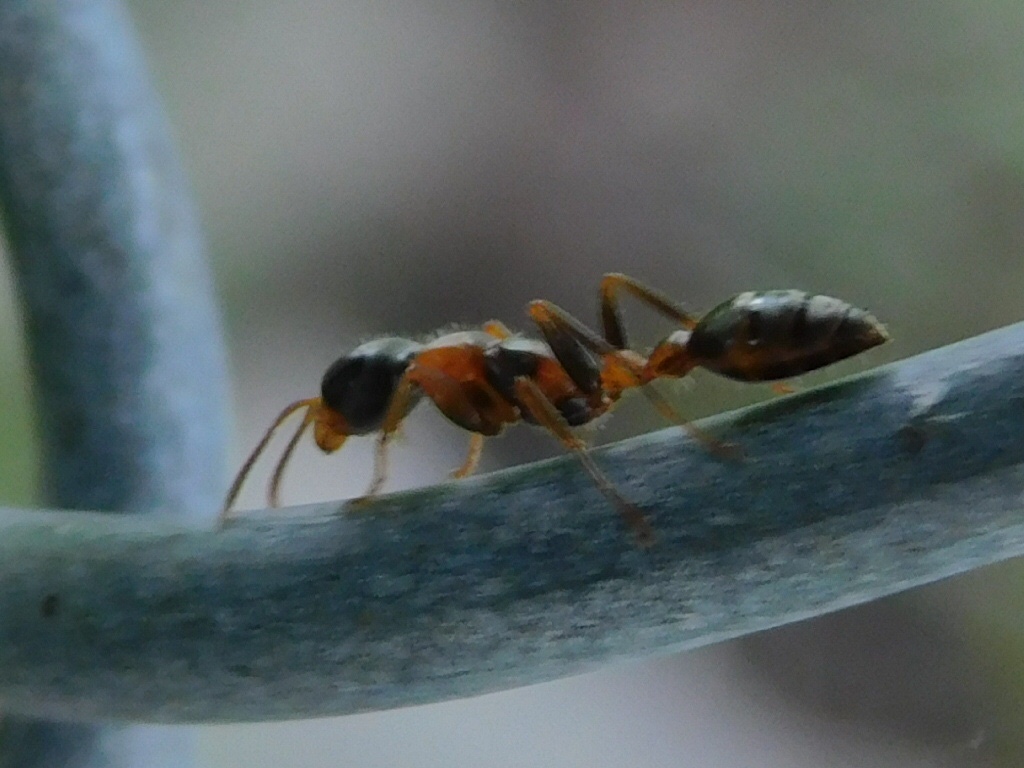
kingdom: Animalia
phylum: Arthropoda
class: Insecta
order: Hymenoptera
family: Formicidae
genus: Pseudomyrmex
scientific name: Pseudomyrmex gracilis
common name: Graceful twig ant
